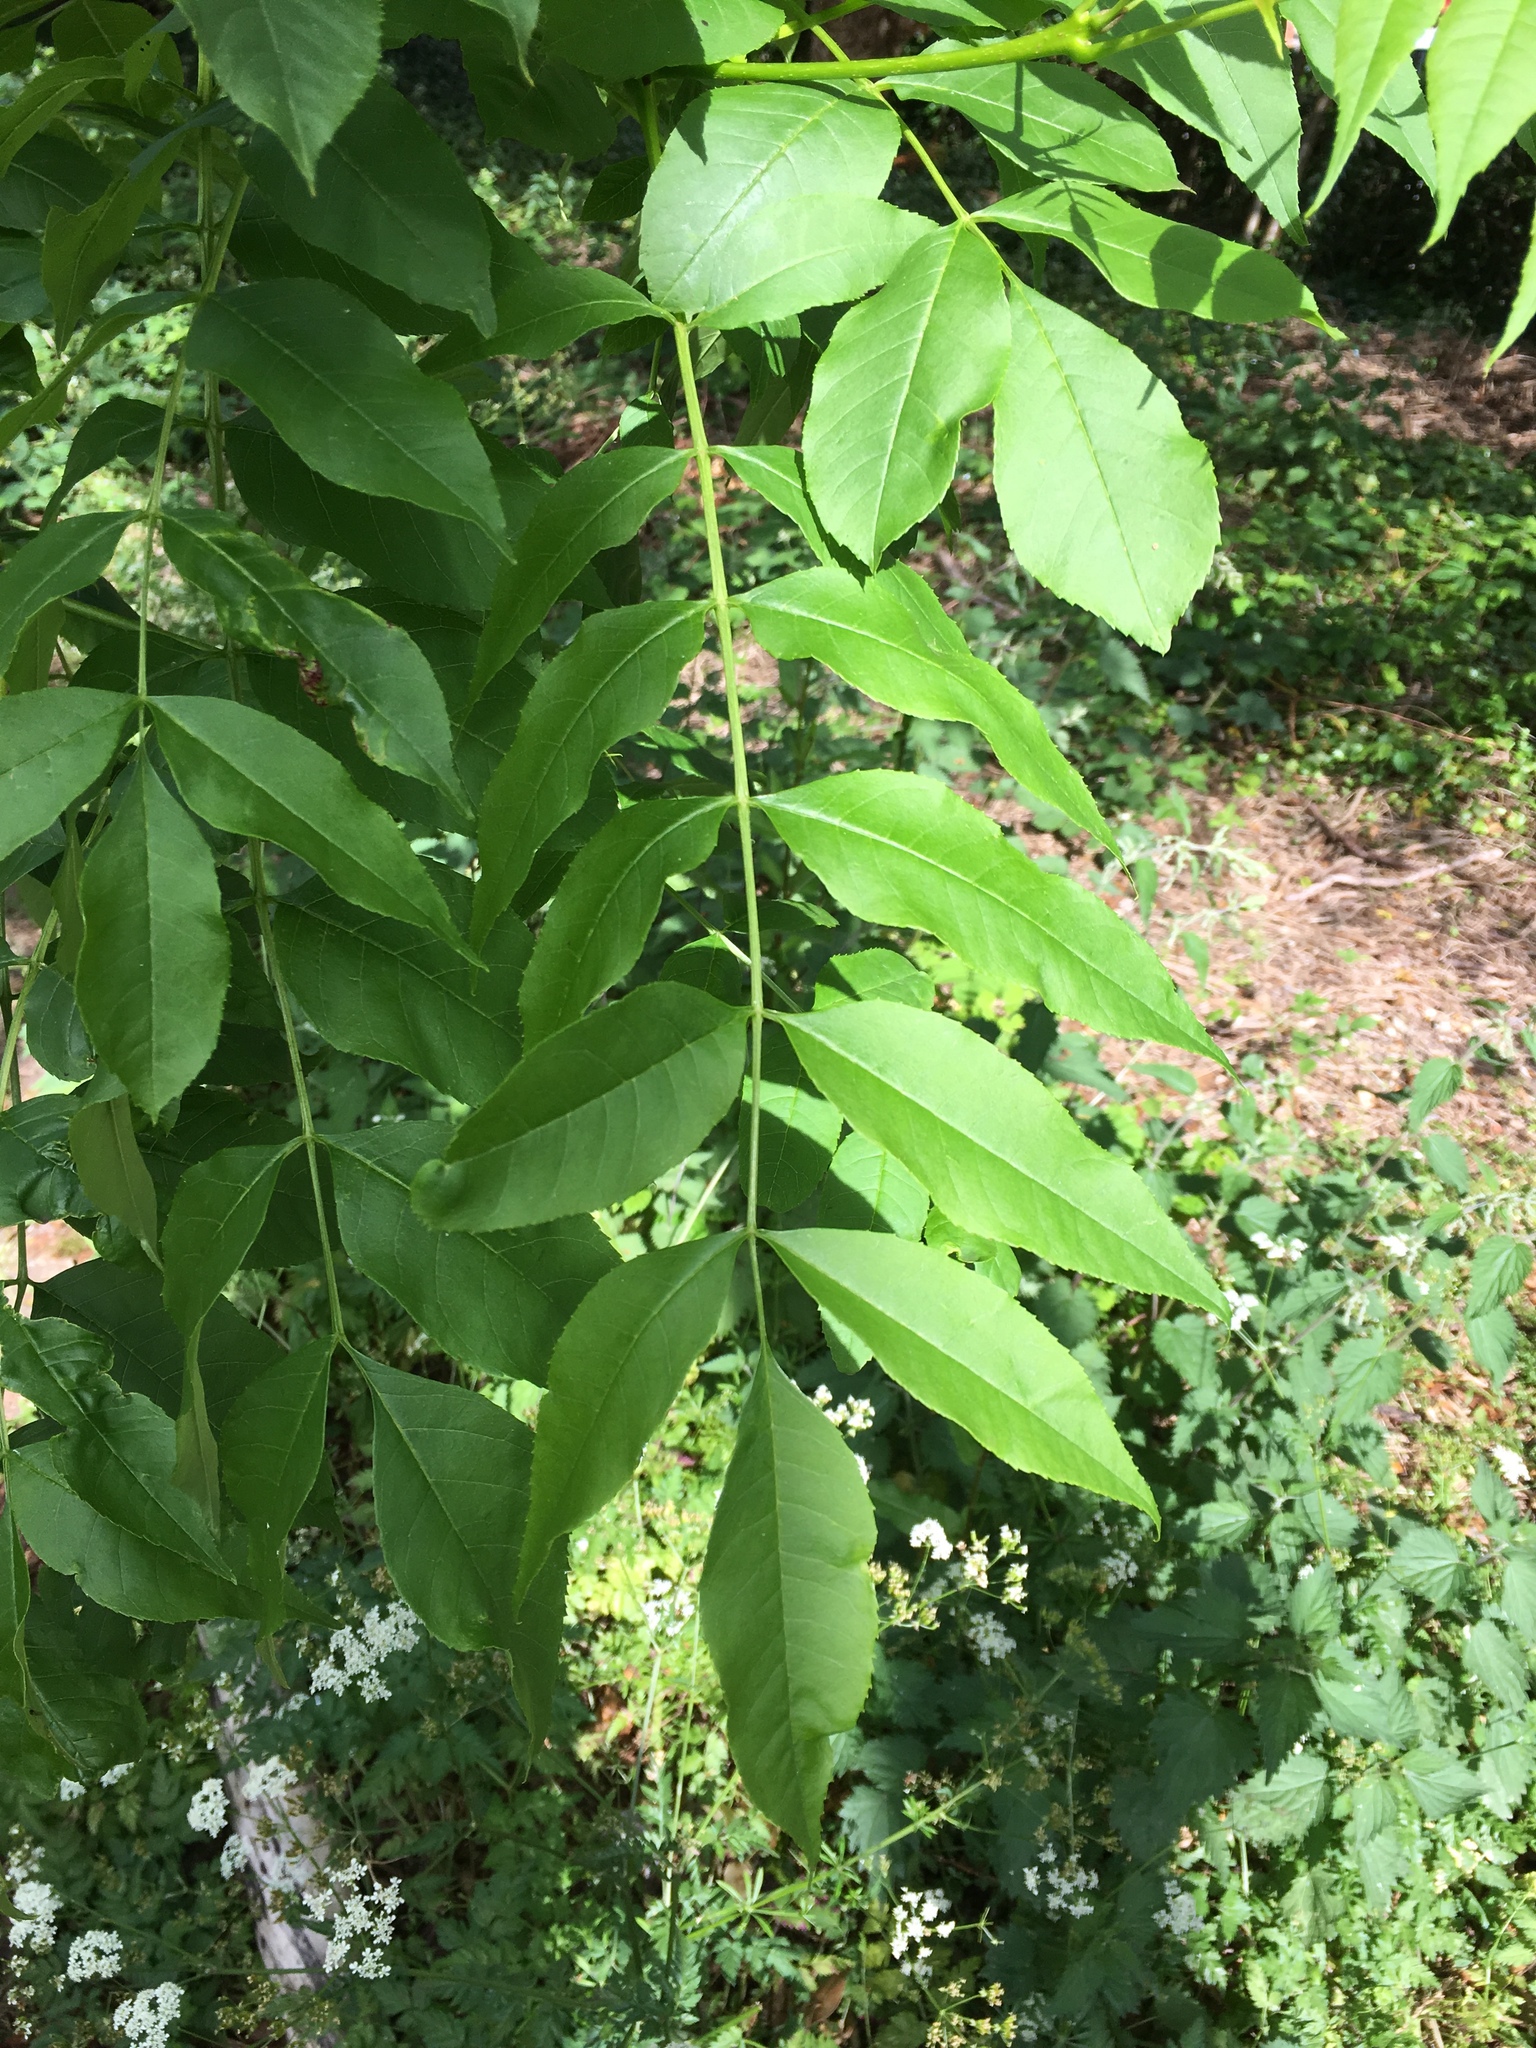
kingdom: Plantae
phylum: Tracheophyta
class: Magnoliopsida
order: Lamiales
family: Oleaceae
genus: Fraxinus
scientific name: Fraxinus excelsior
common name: European ash
